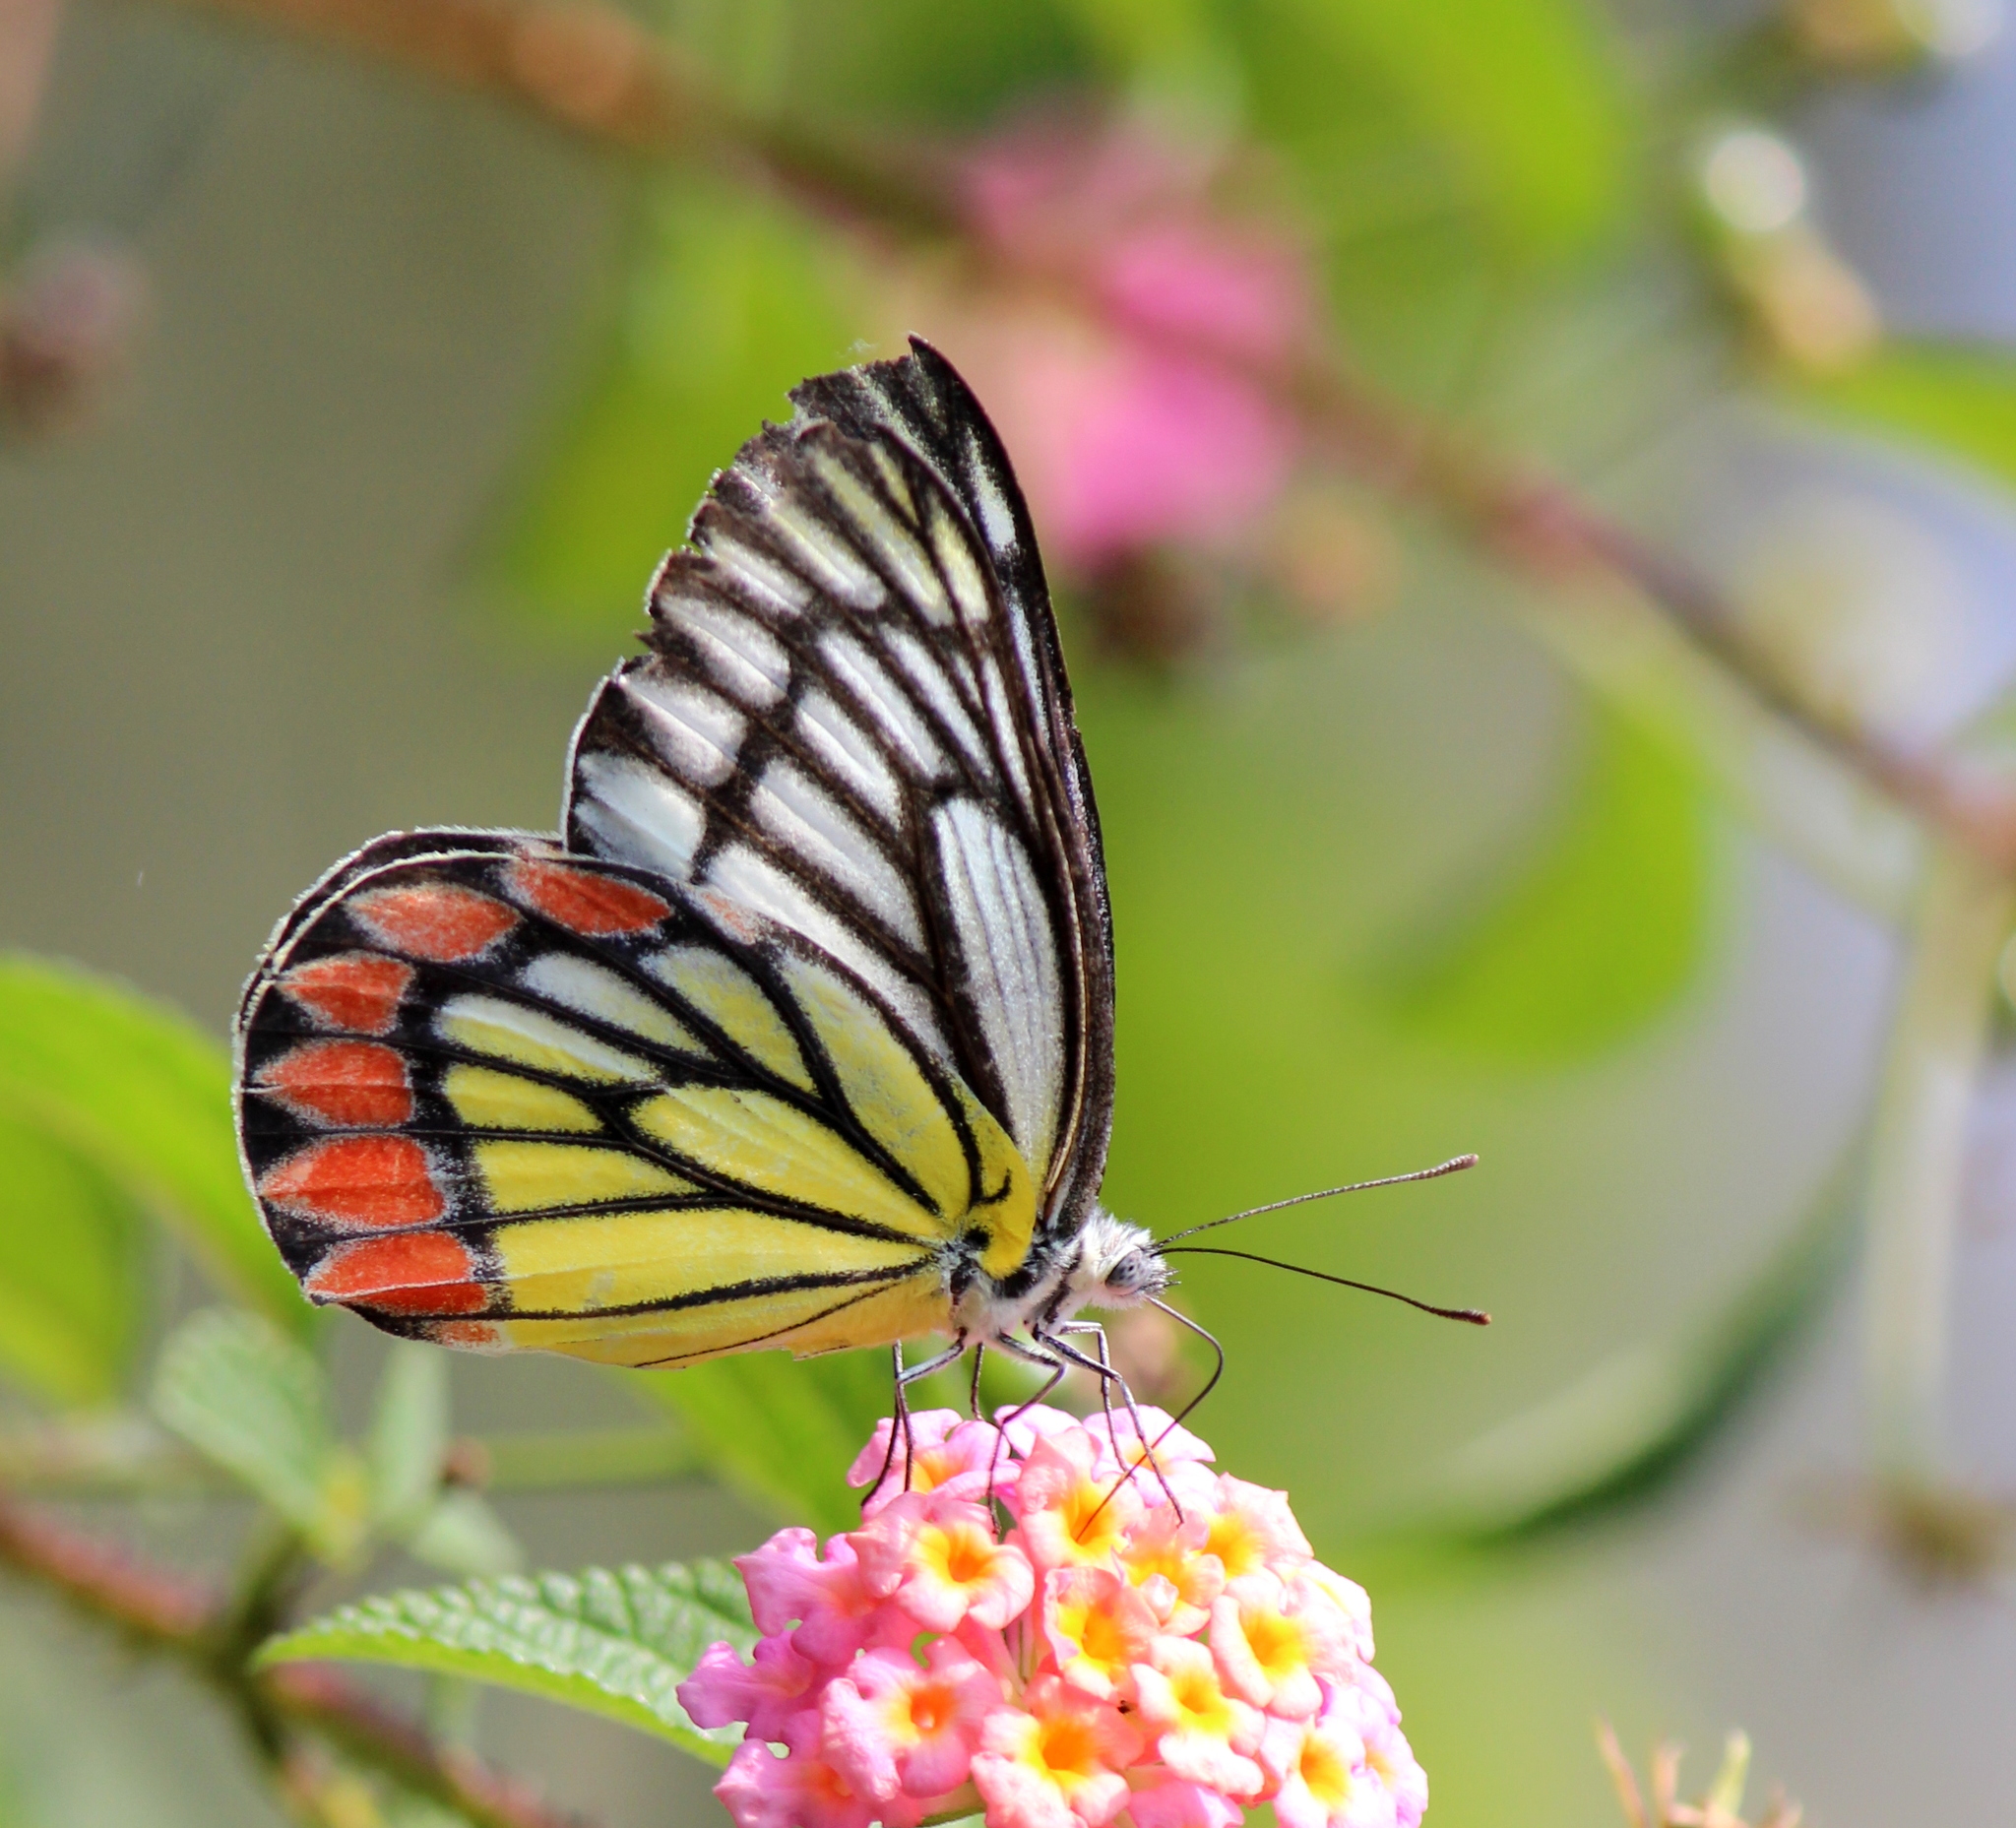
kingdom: Animalia
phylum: Arthropoda
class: Insecta
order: Lepidoptera
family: Pieridae
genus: Delias
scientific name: Delias eucharis
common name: Common jezebel
